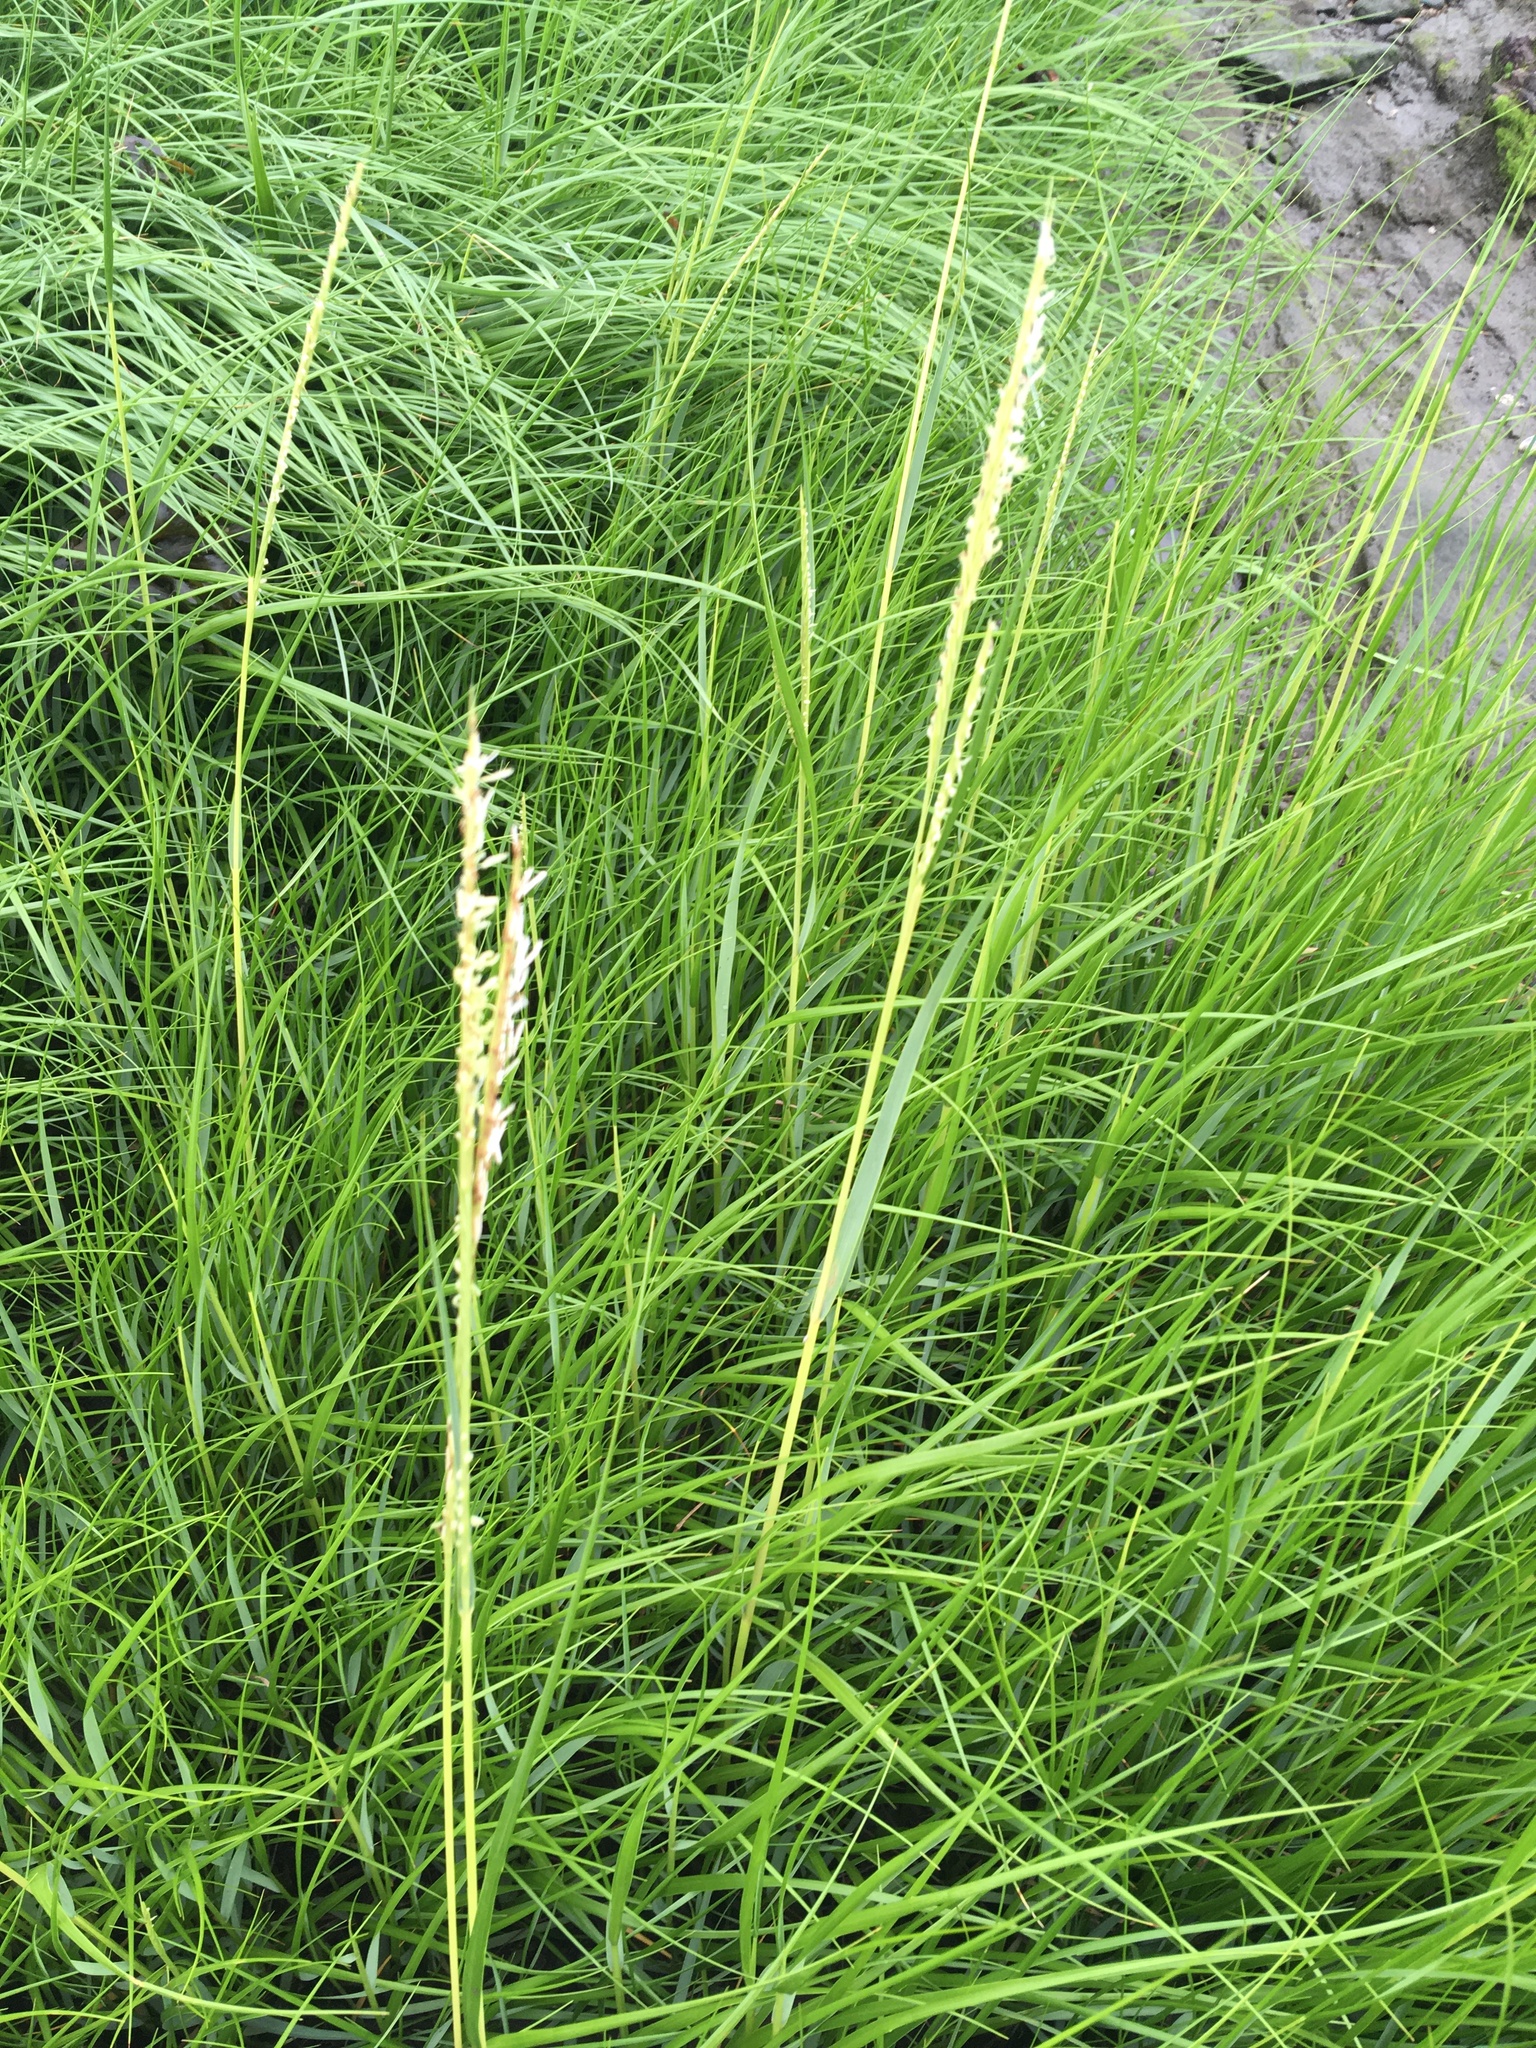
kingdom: Plantae
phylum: Tracheophyta
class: Liliopsida
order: Poales
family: Poaceae
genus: Sporobolus
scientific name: Sporobolus alterniflorus
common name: Atlantic cordgrass
